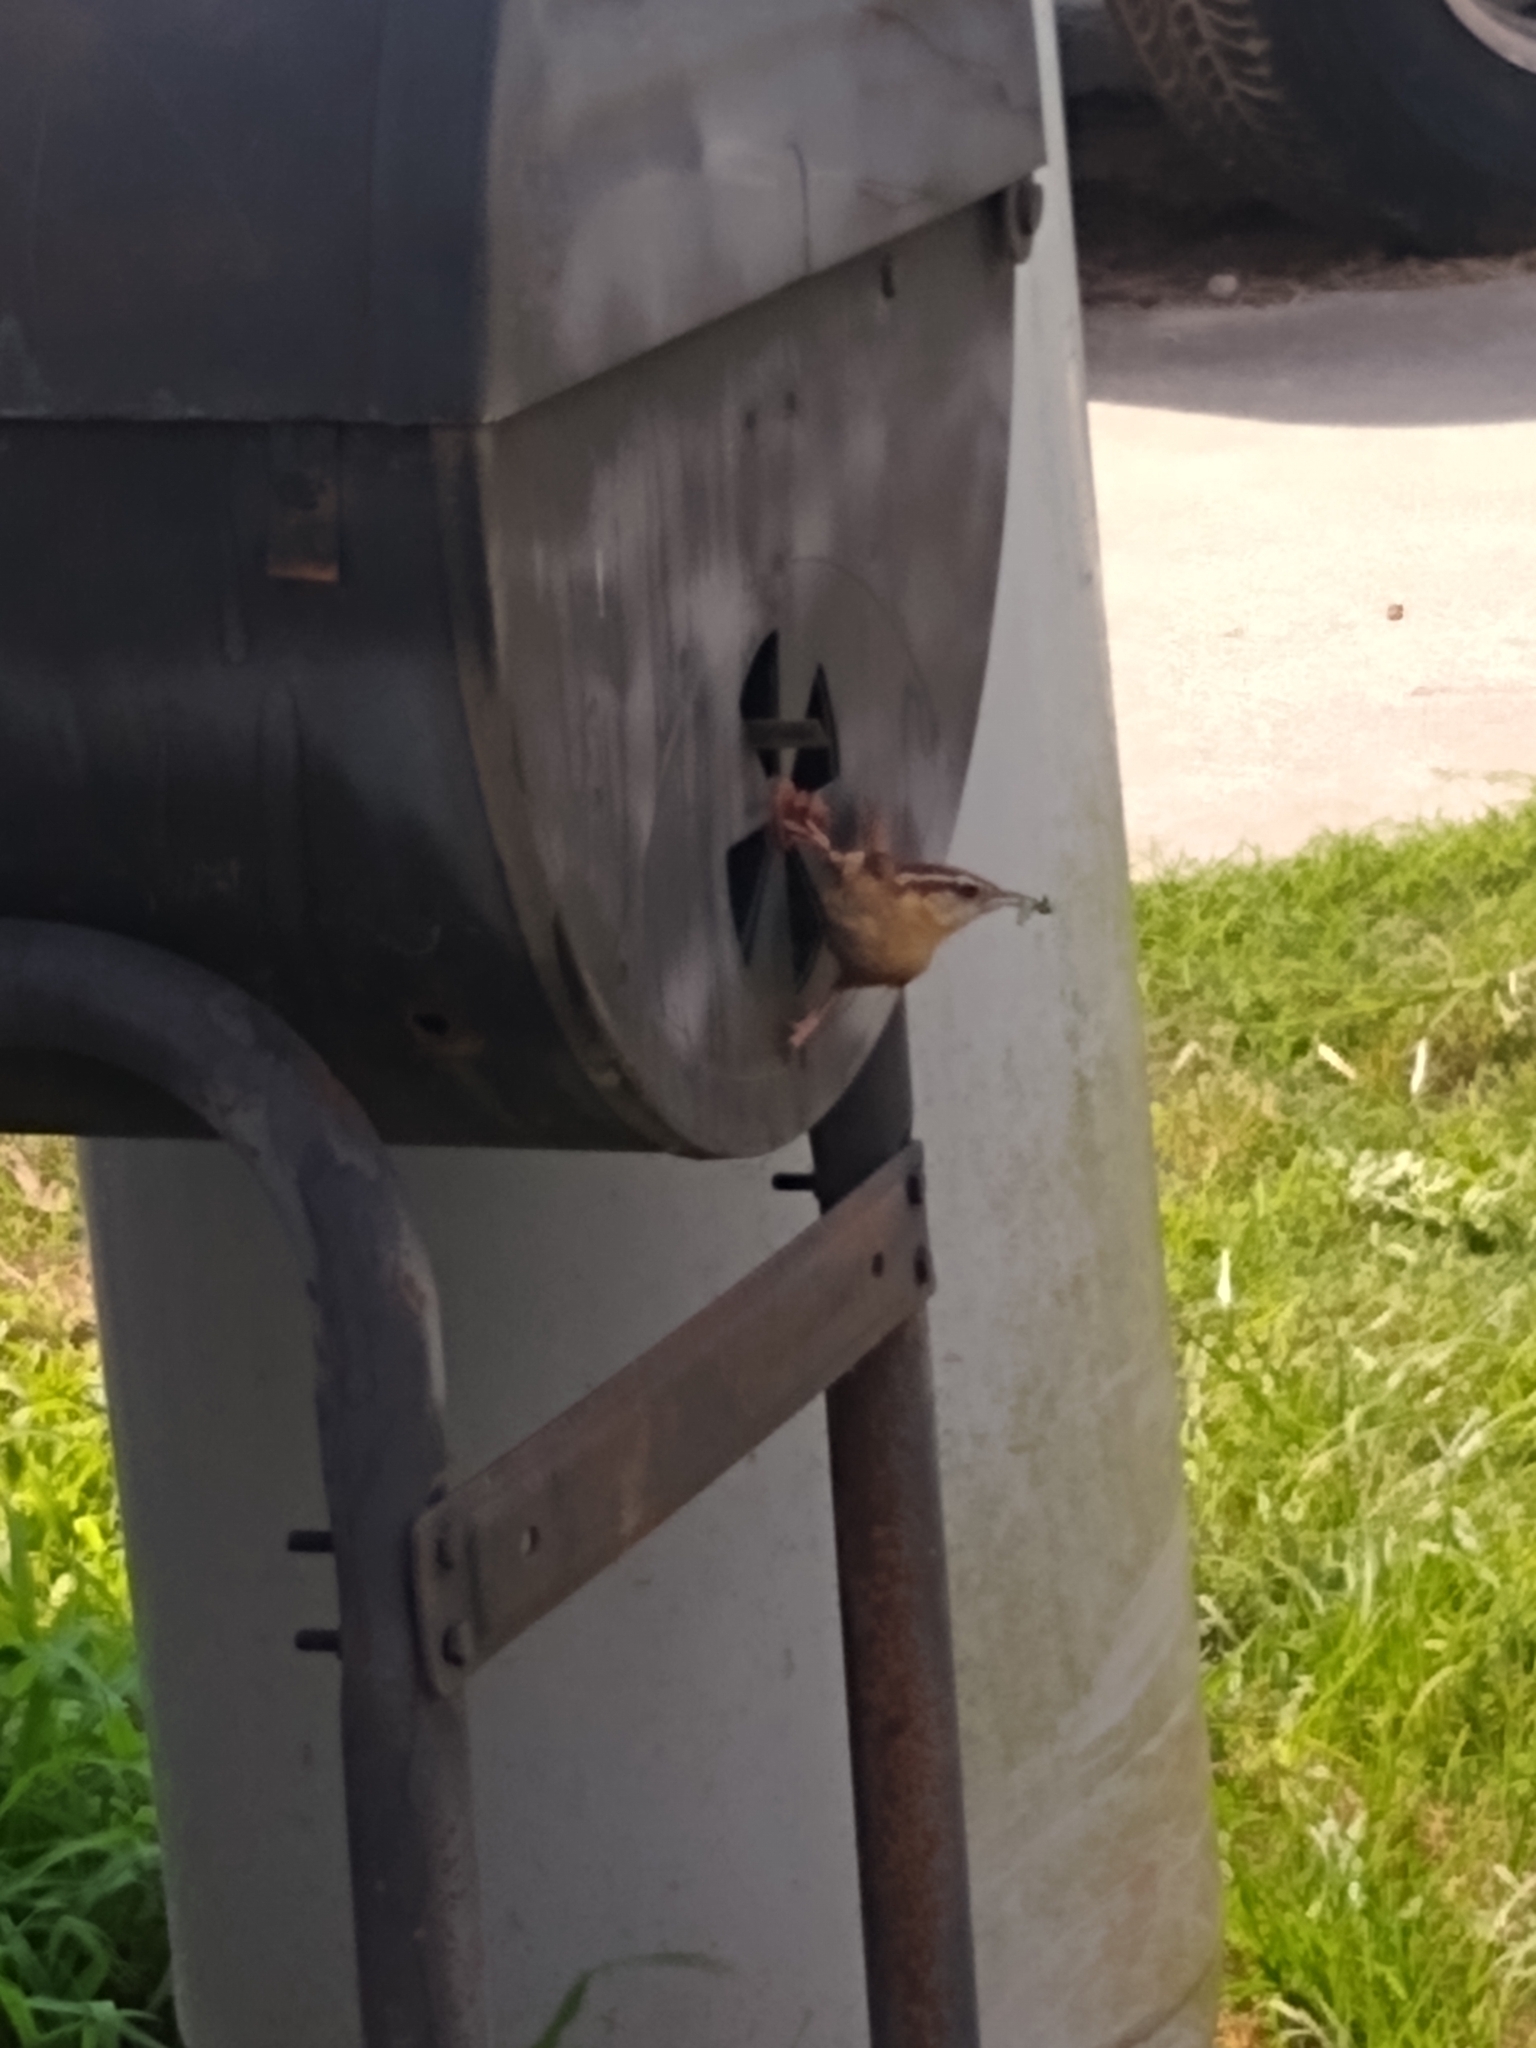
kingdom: Animalia
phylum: Chordata
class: Aves
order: Passeriformes
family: Troglodytidae
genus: Thryothorus
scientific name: Thryothorus ludovicianus
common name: Carolina wren
